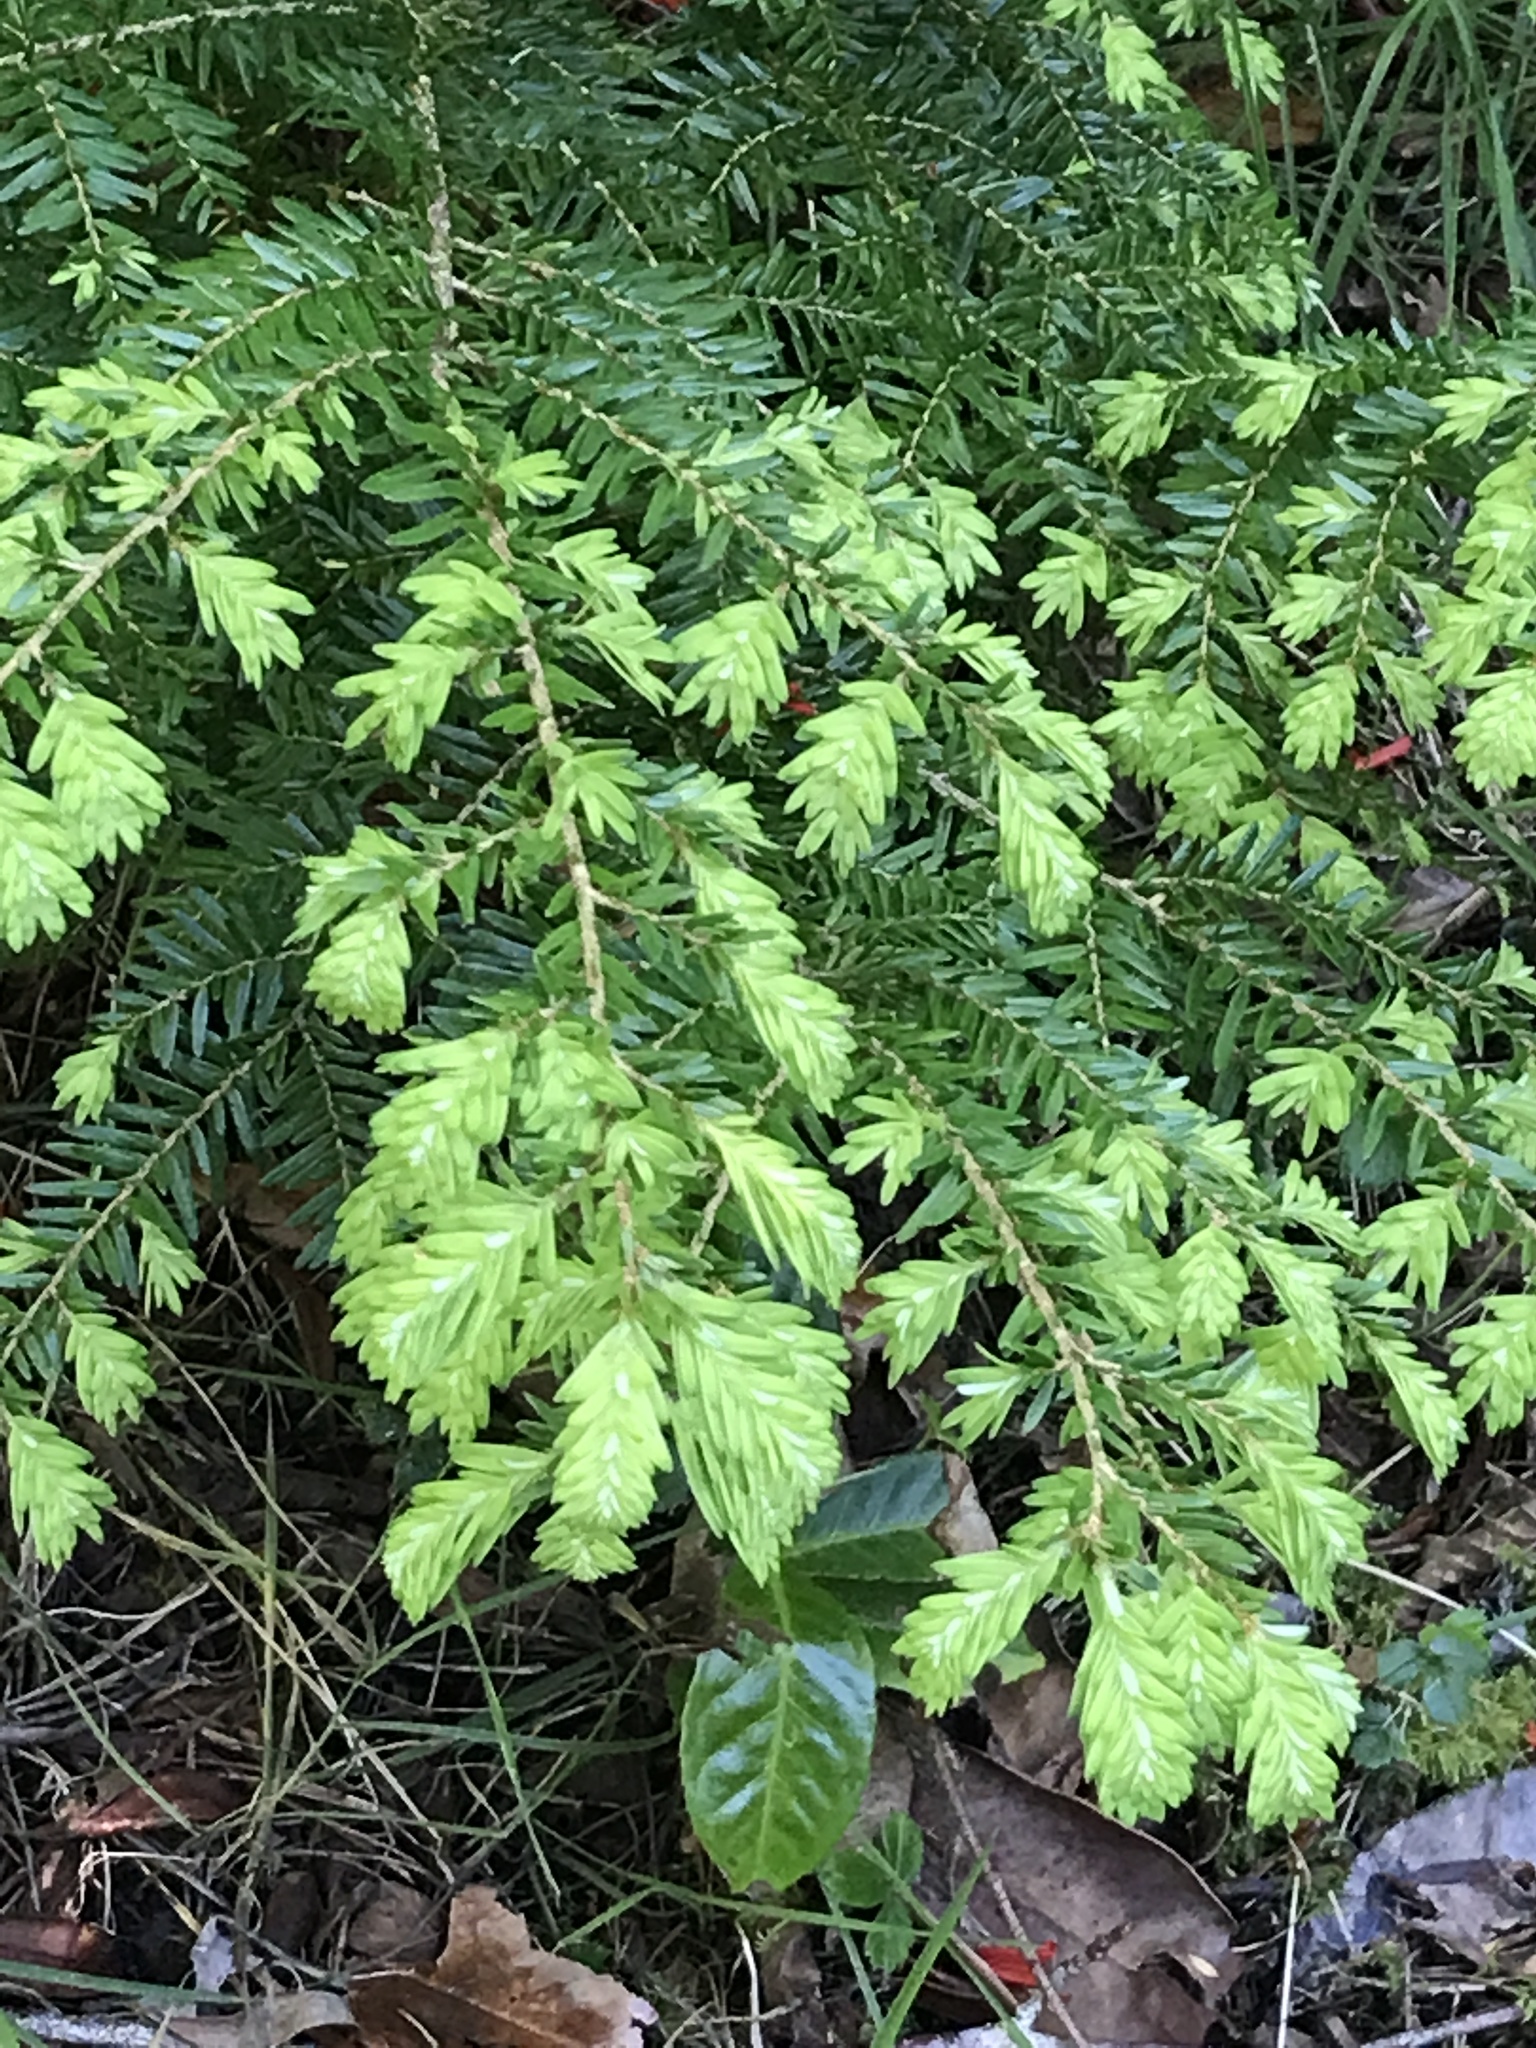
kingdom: Plantae
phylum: Tracheophyta
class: Pinopsida
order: Pinales
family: Pinaceae
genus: Tsuga
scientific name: Tsuga heterophylla
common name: Western hemlock
